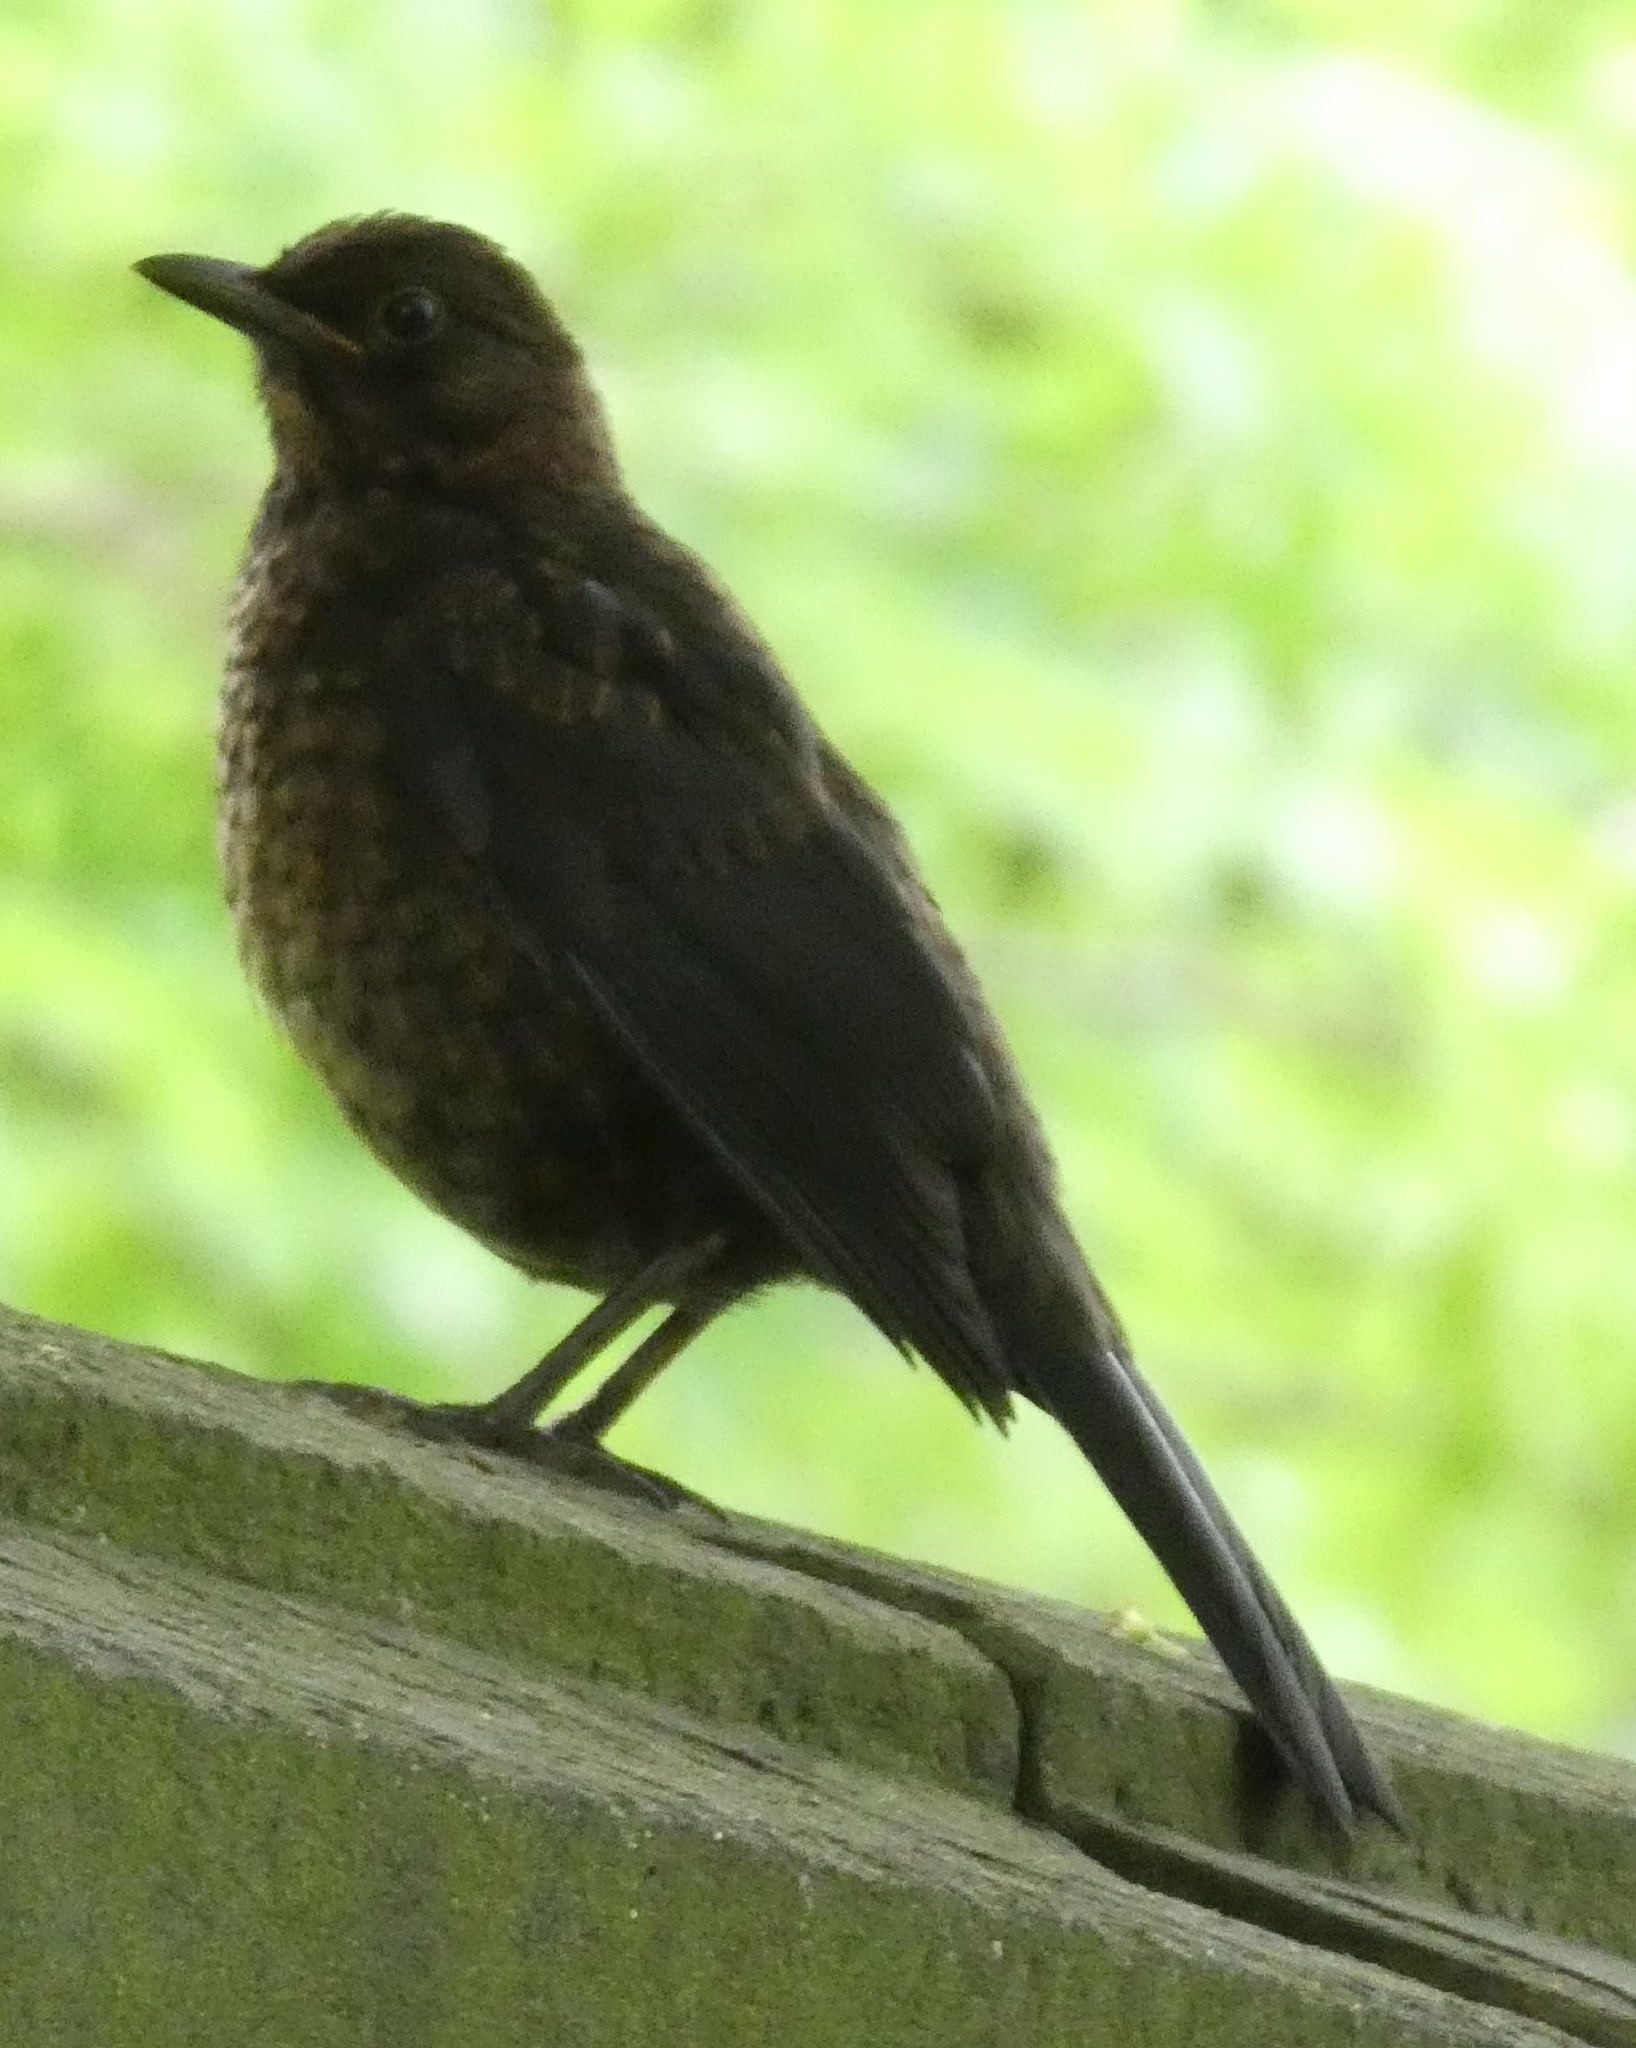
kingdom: Animalia
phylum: Chordata
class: Aves
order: Passeriformes
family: Turdidae
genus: Turdus
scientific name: Turdus merula
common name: Common blackbird
